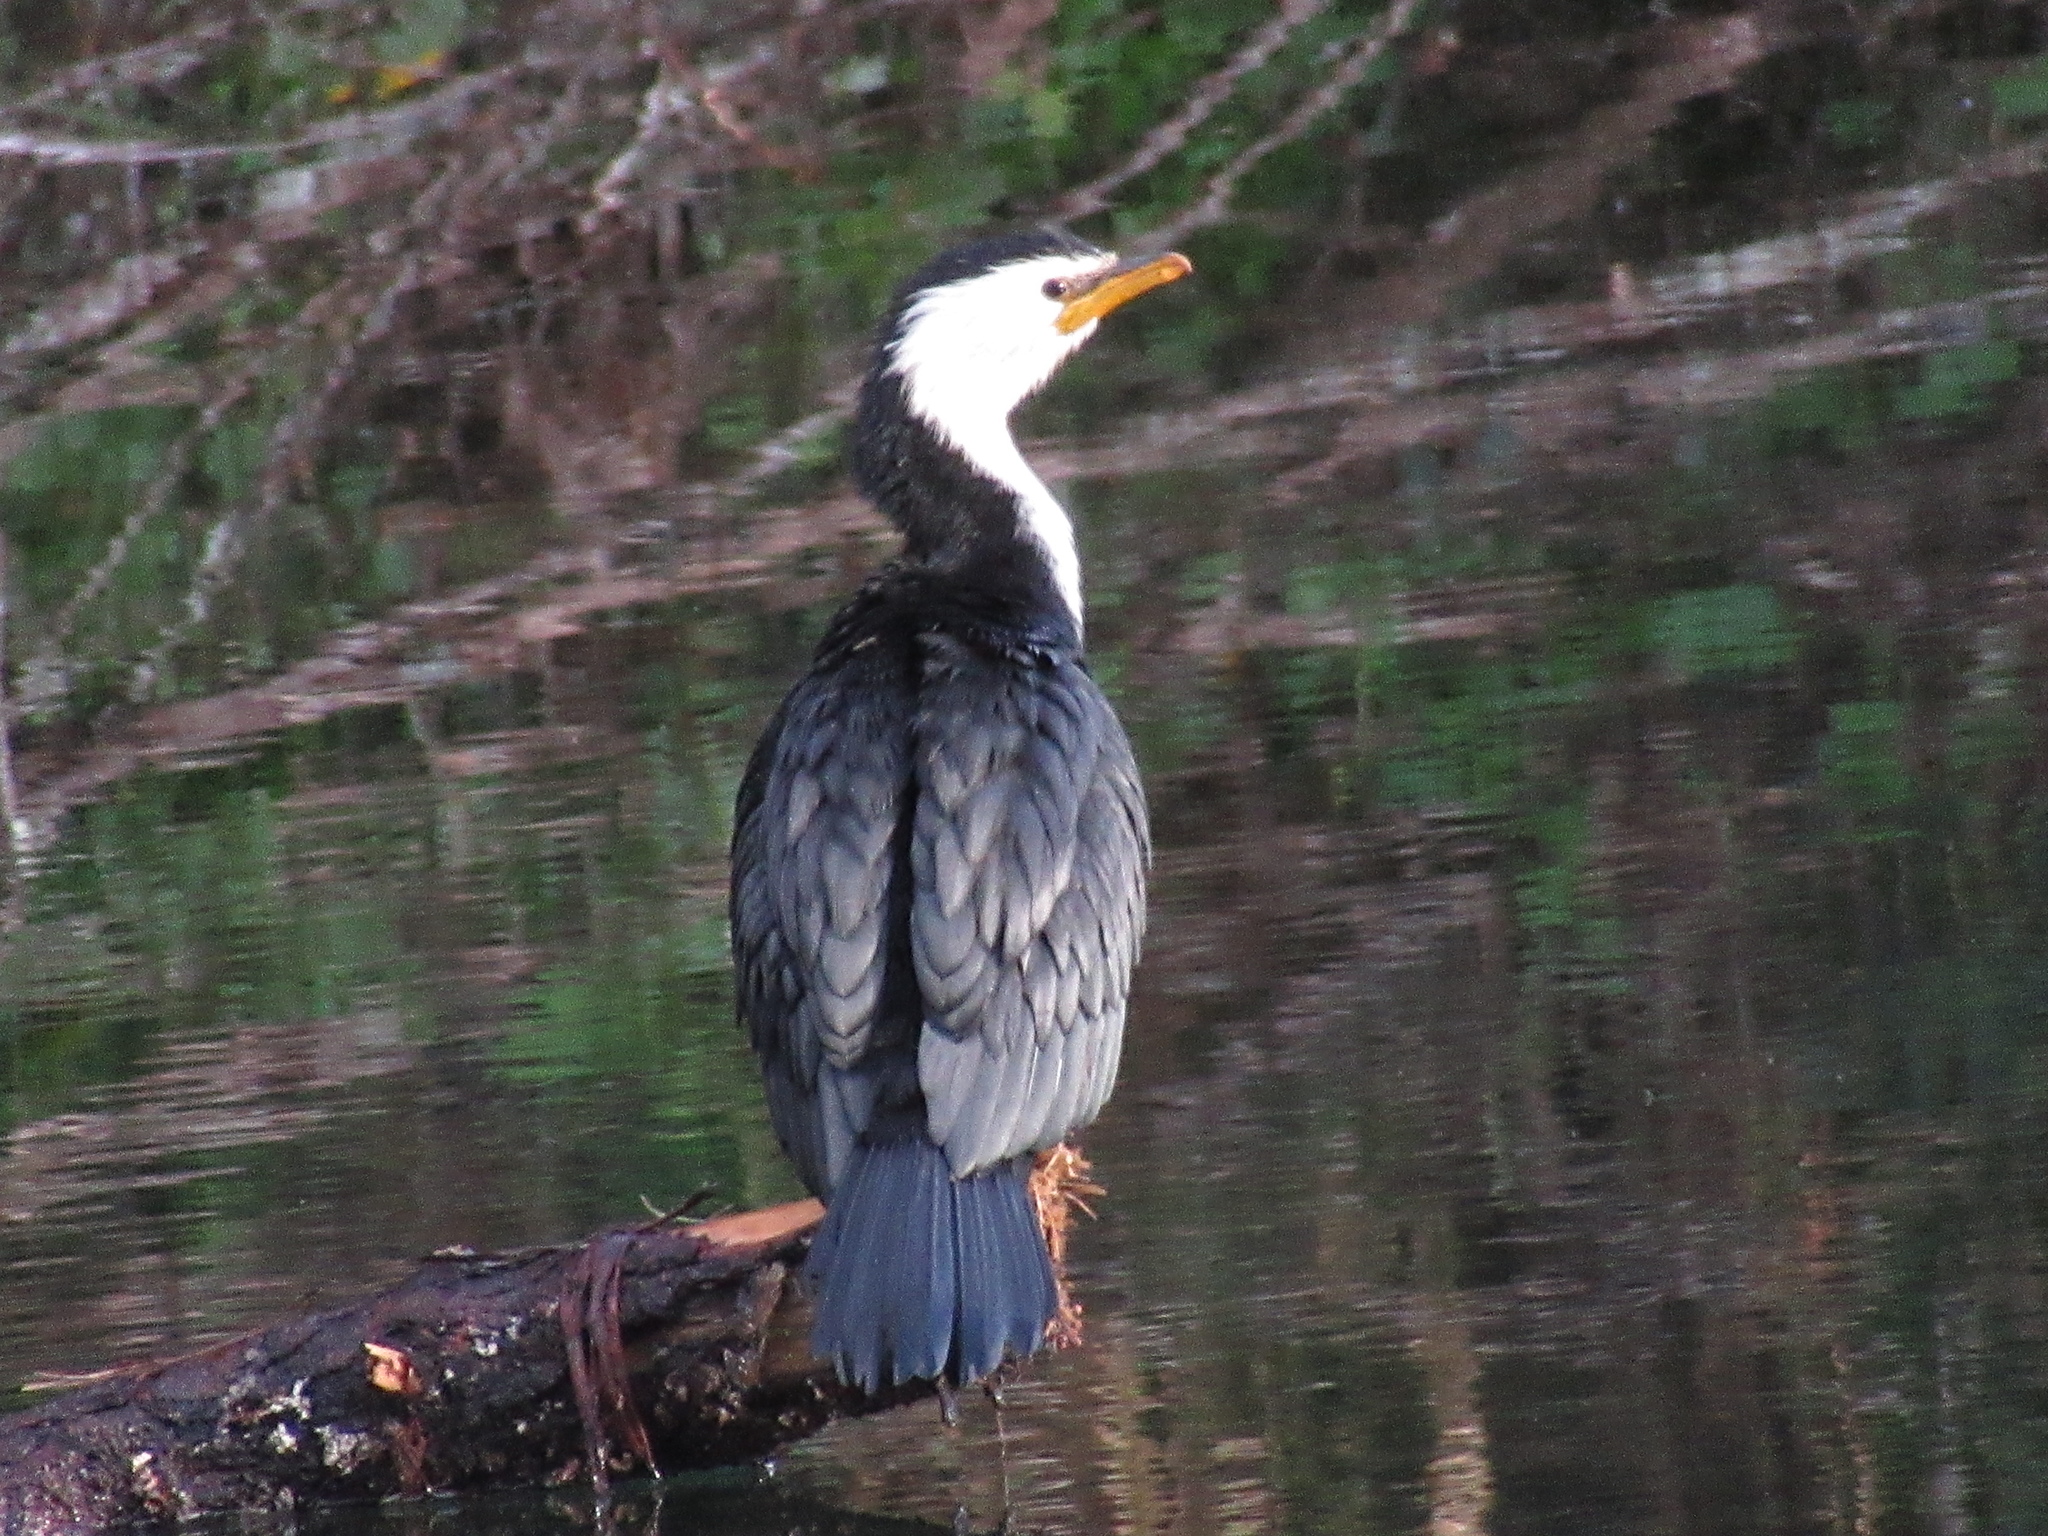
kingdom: Animalia
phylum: Chordata
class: Aves
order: Suliformes
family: Phalacrocoracidae
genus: Microcarbo
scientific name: Microcarbo melanoleucos
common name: Little pied cormorant
